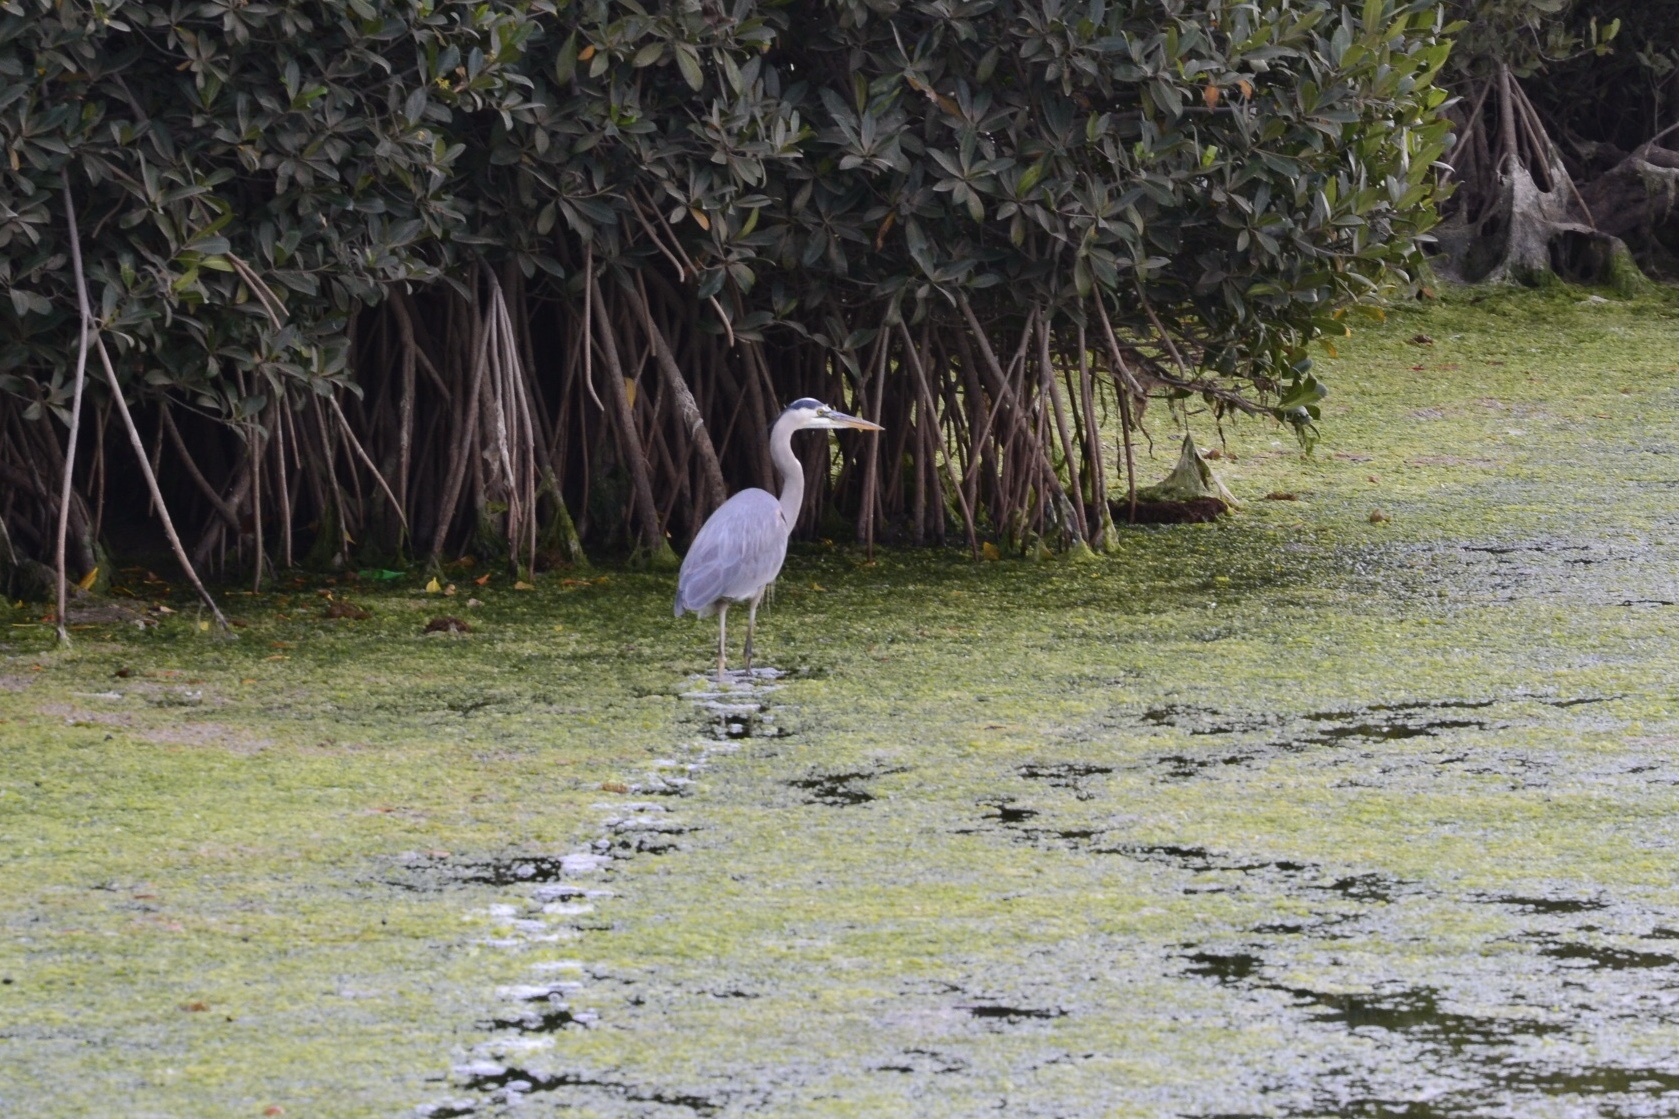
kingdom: Animalia
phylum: Chordata
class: Aves
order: Pelecaniformes
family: Ardeidae
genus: Ardea
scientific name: Ardea herodias
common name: Great blue heron
